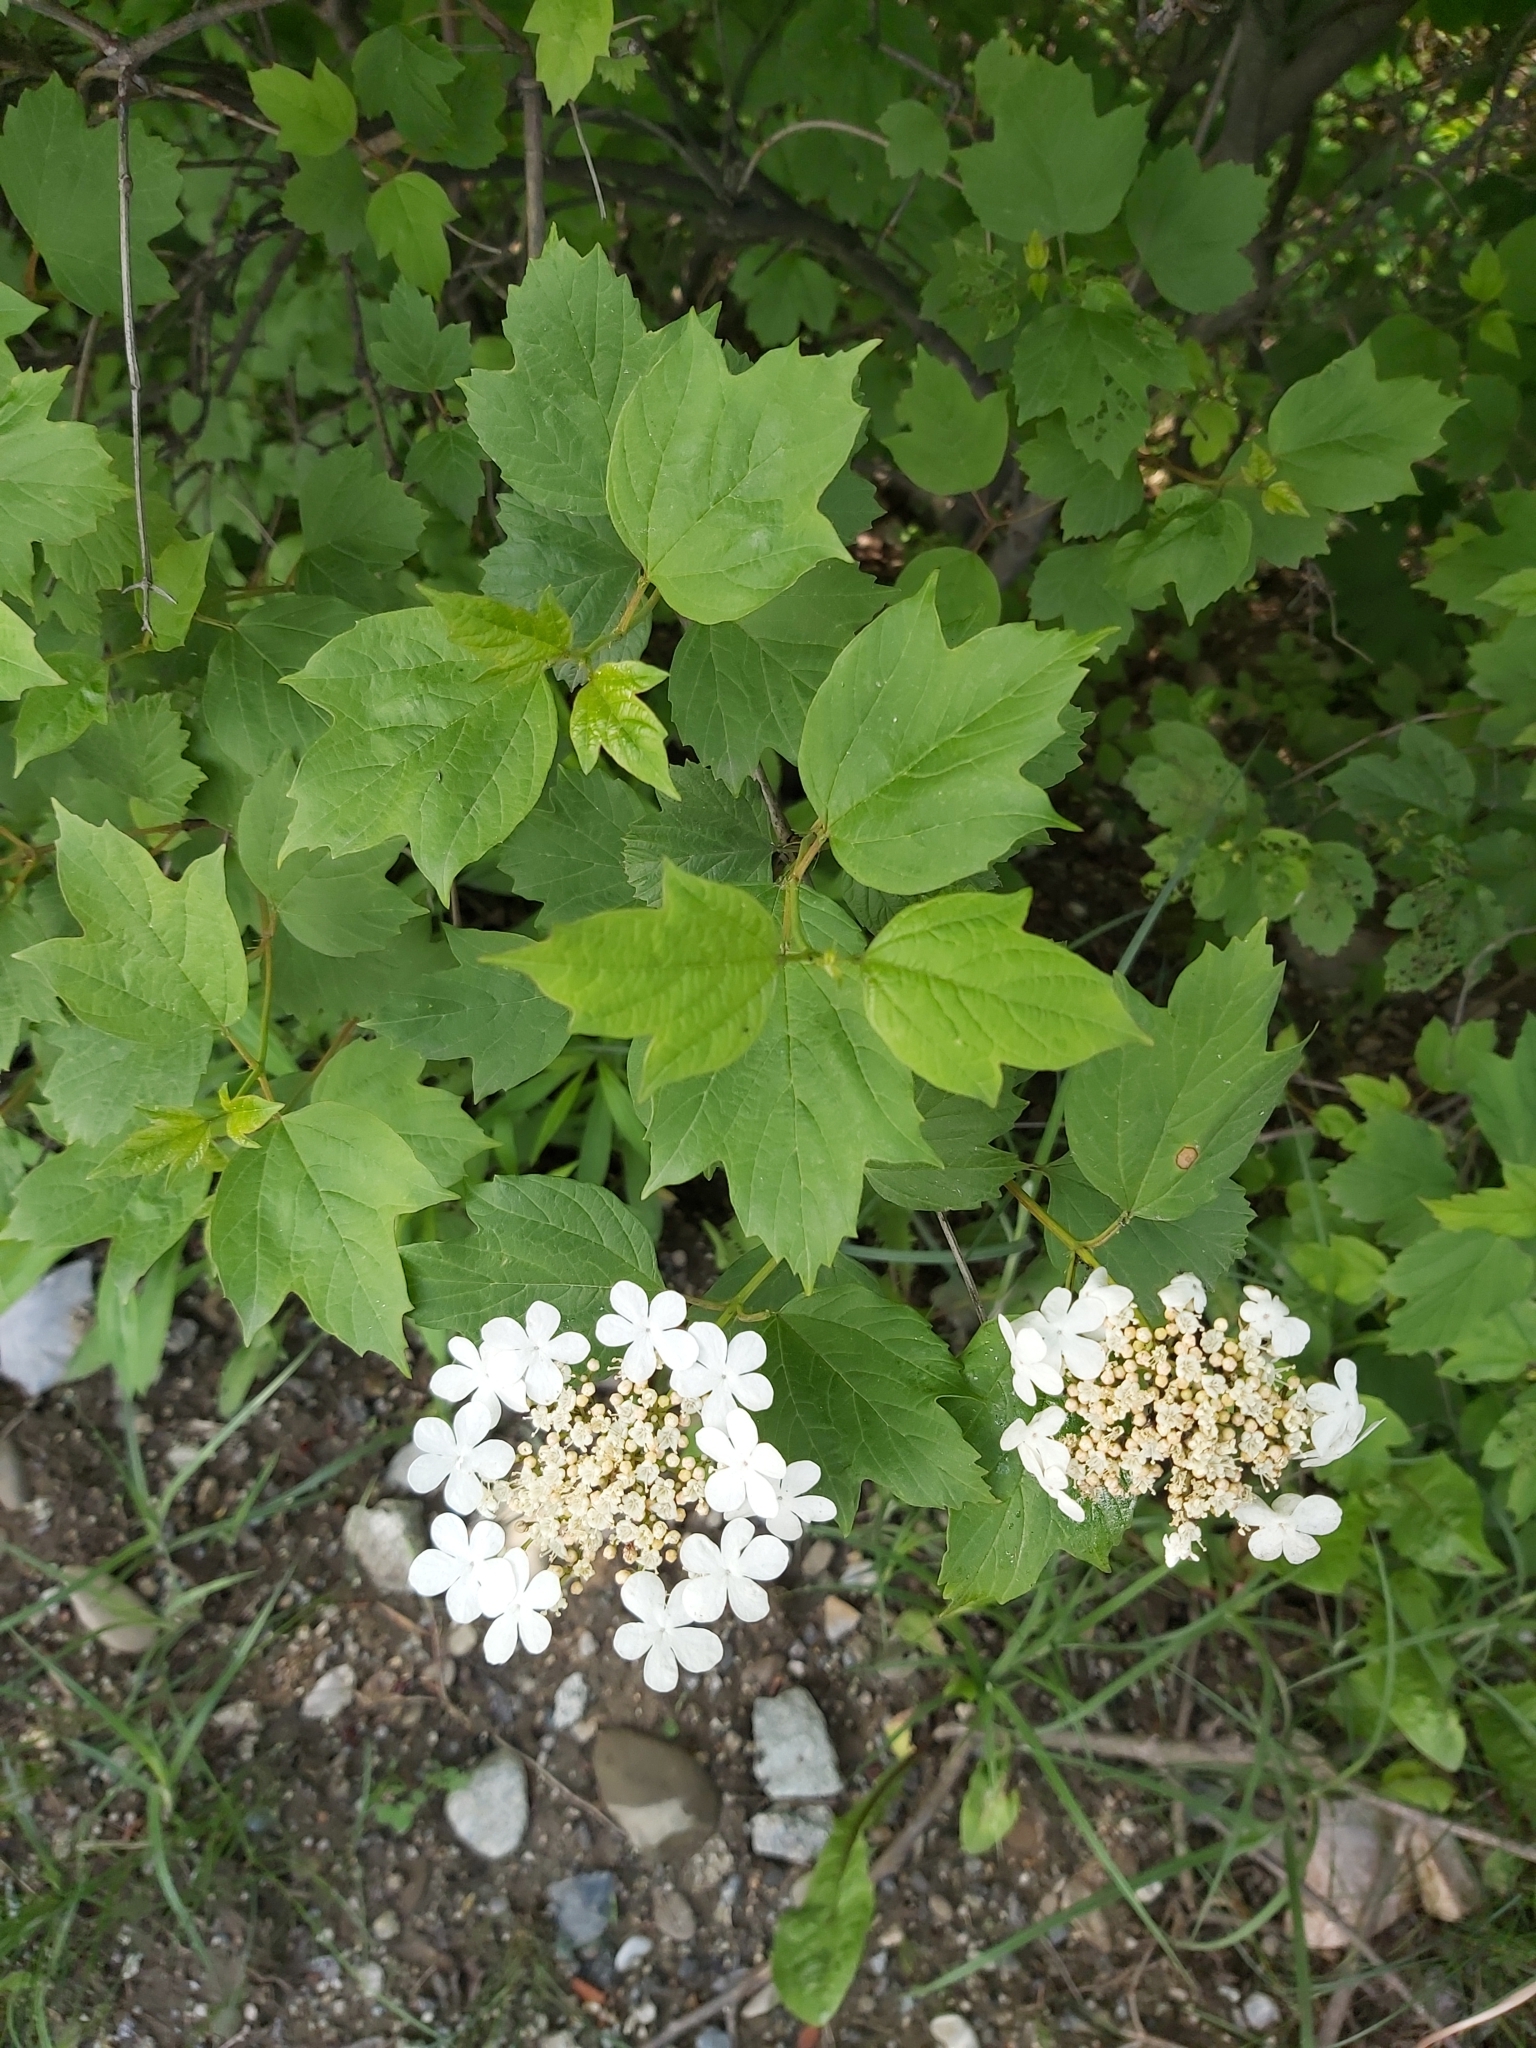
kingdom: Plantae
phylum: Tracheophyta
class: Magnoliopsida
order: Dipsacales
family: Viburnaceae
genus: Viburnum
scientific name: Viburnum opulus
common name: Guelder-rose
